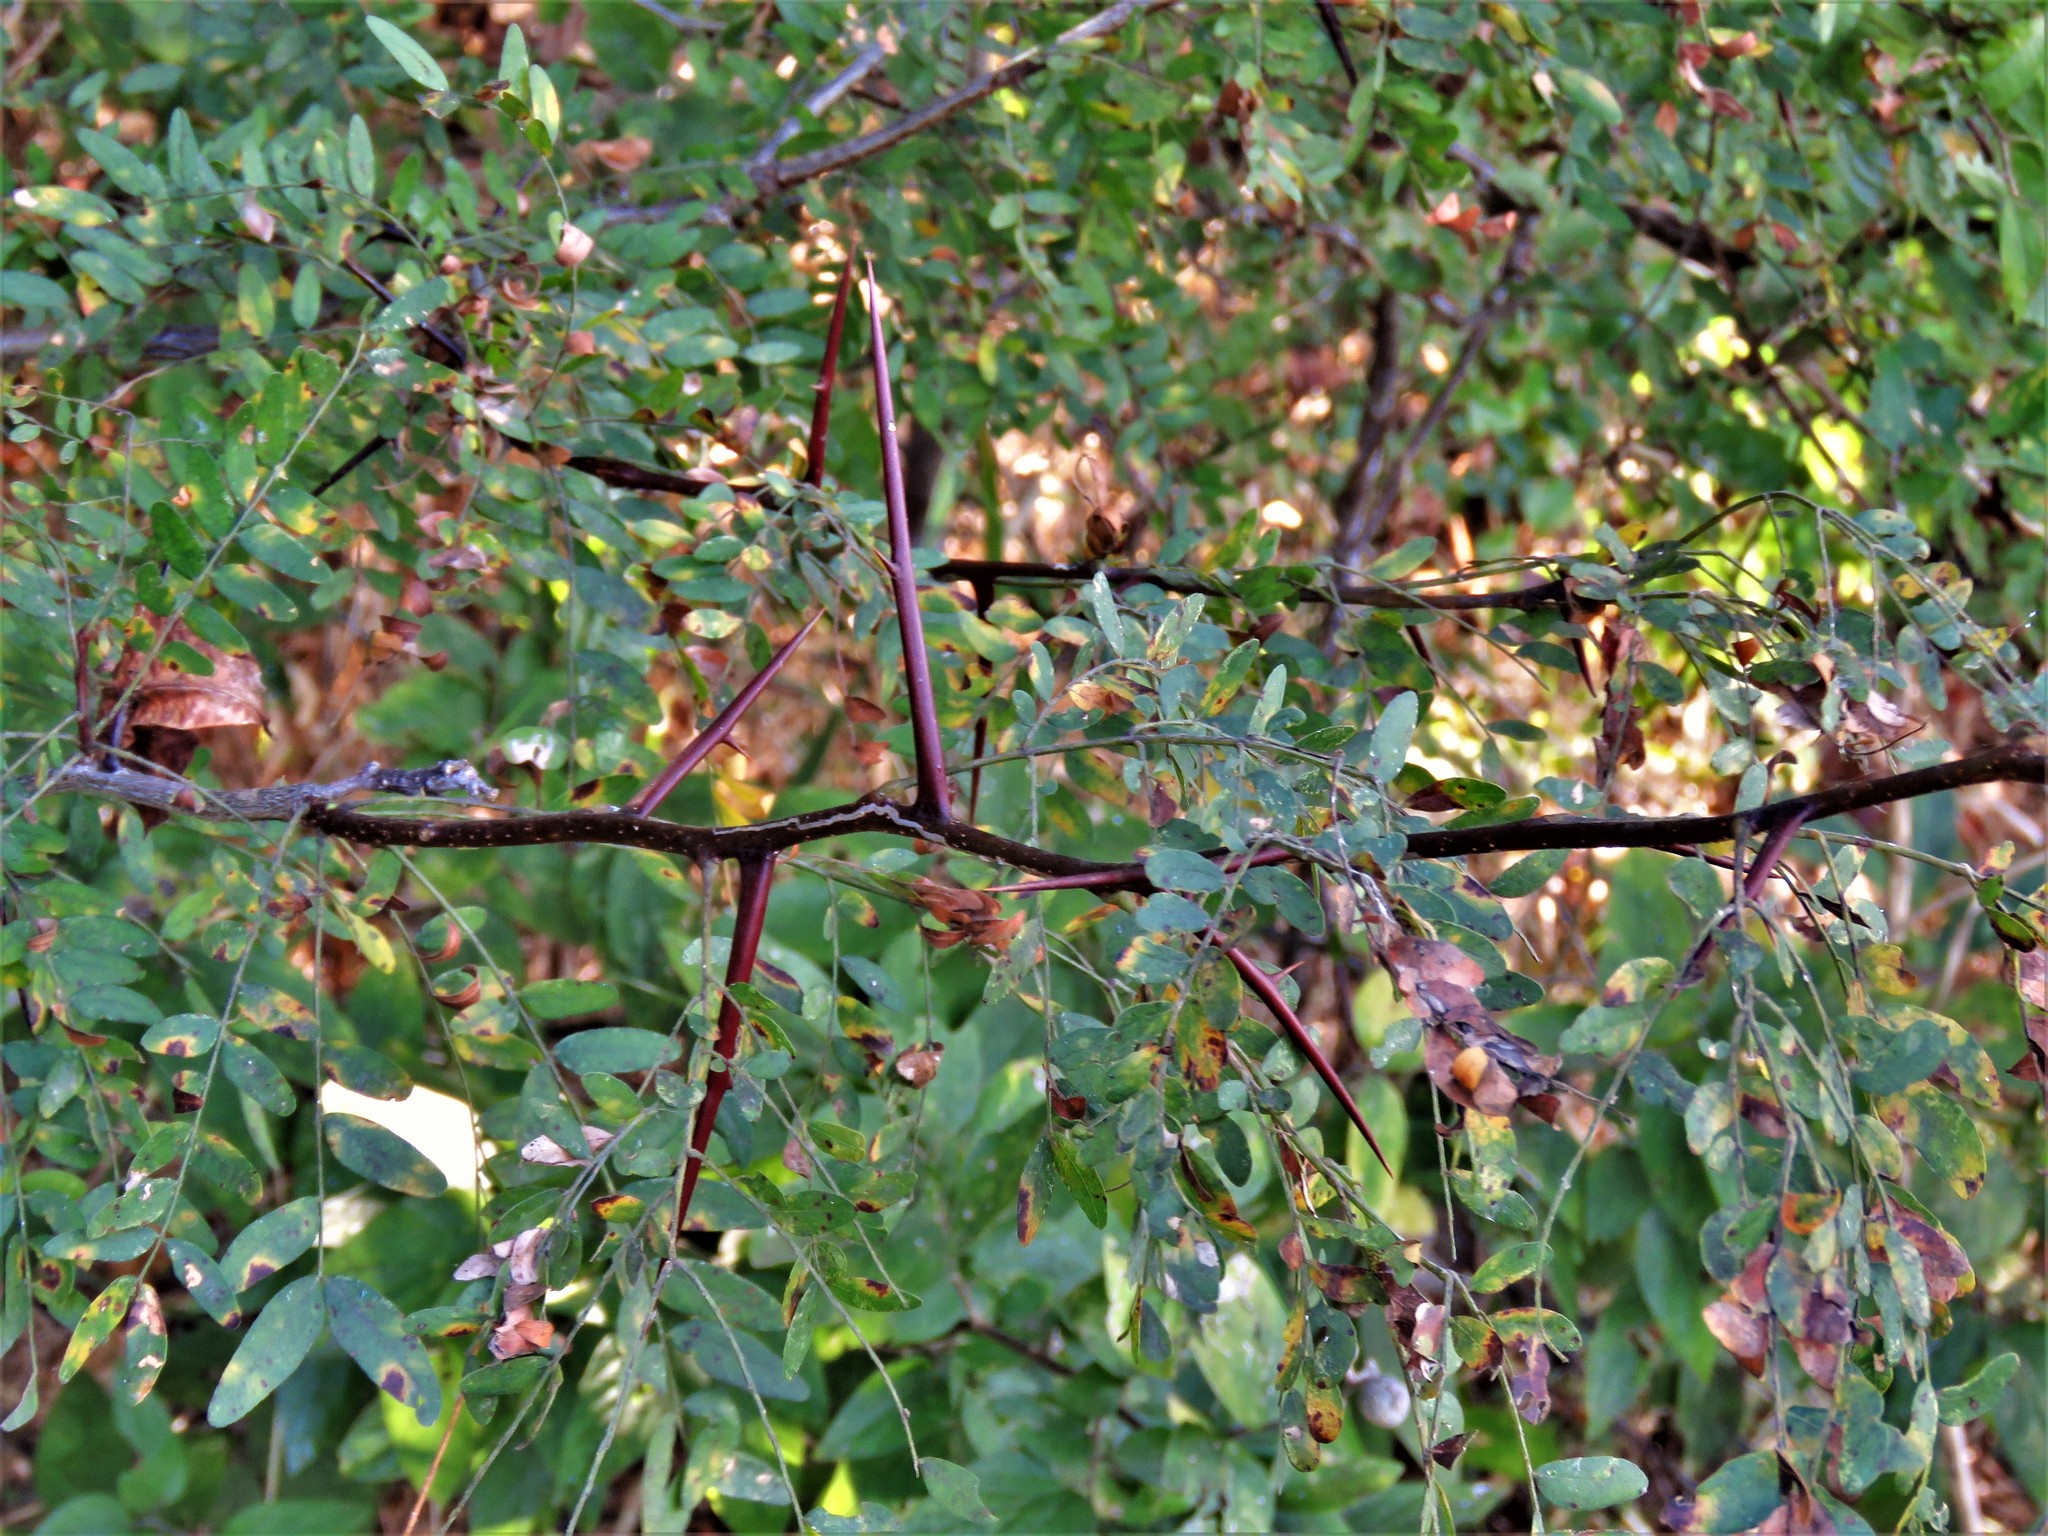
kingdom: Plantae
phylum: Tracheophyta
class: Magnoliopsida
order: Fabales
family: Fabaceae
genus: Gleditsia
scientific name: Gleditsia triacanthos
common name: Common honeylocust
